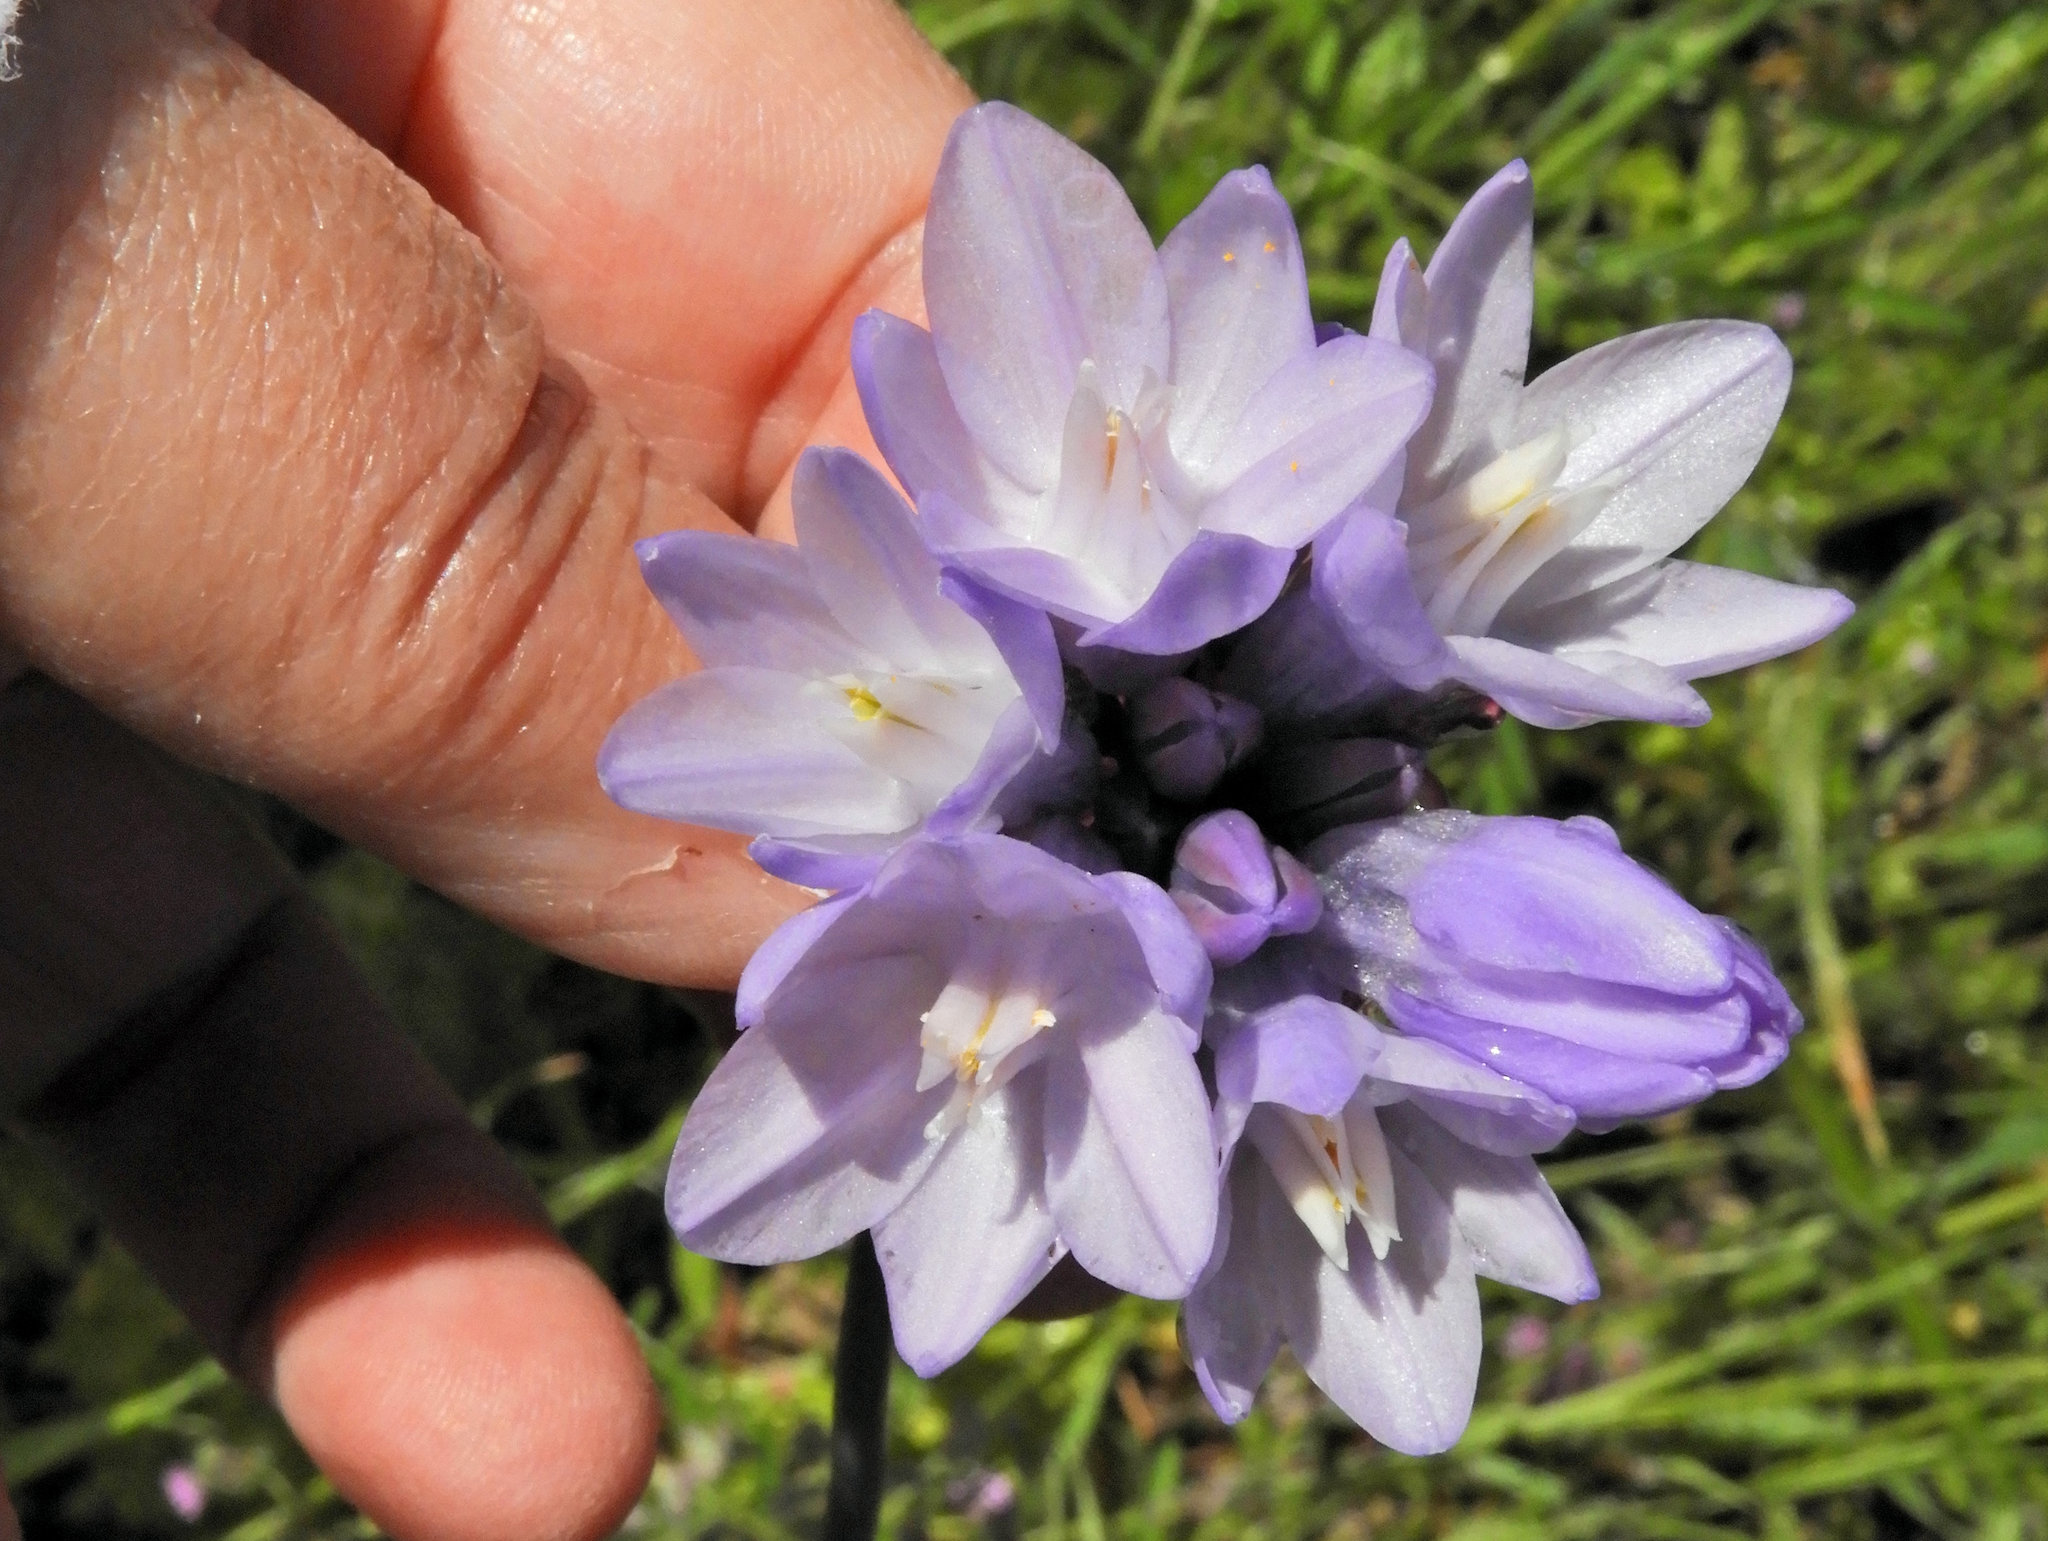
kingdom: Plantae
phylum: Tracheophyta
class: Liliopsida
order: Asparagales
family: Asparagaceae
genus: Dipterostemon
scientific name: Dipterostemon capitatus
